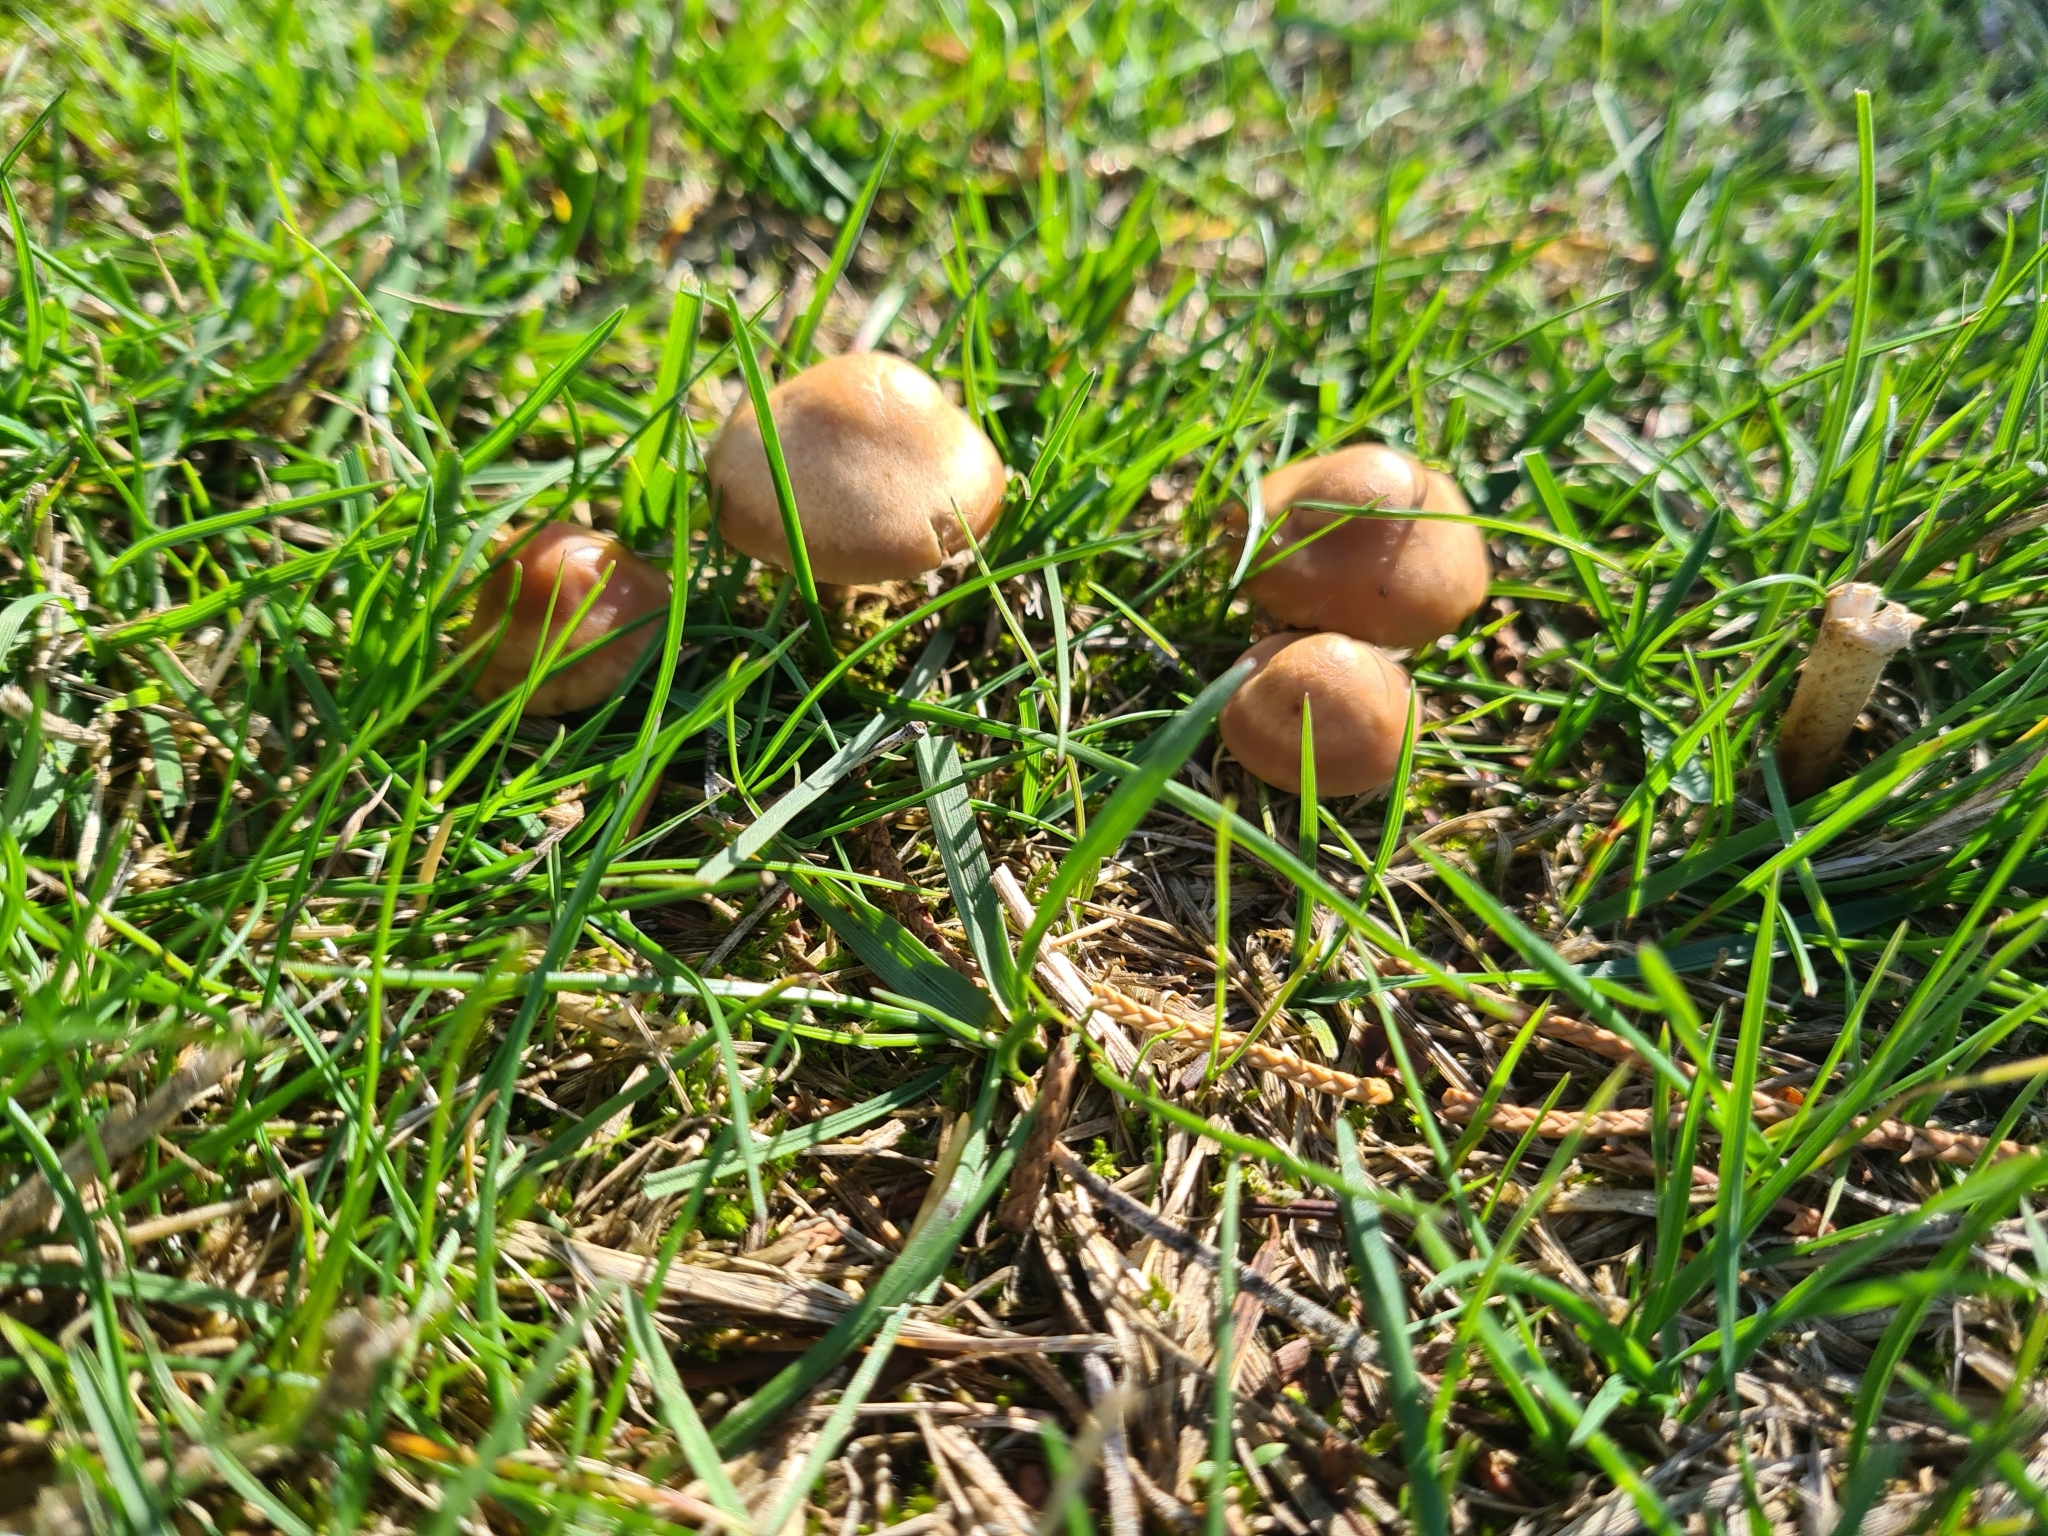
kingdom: Fungi
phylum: Basidiomycota
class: Agaricomycetes
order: Agaricales
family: Marasmiaceae
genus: Marasmius
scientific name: Marasmius oreades
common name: Fairy ring champignon
